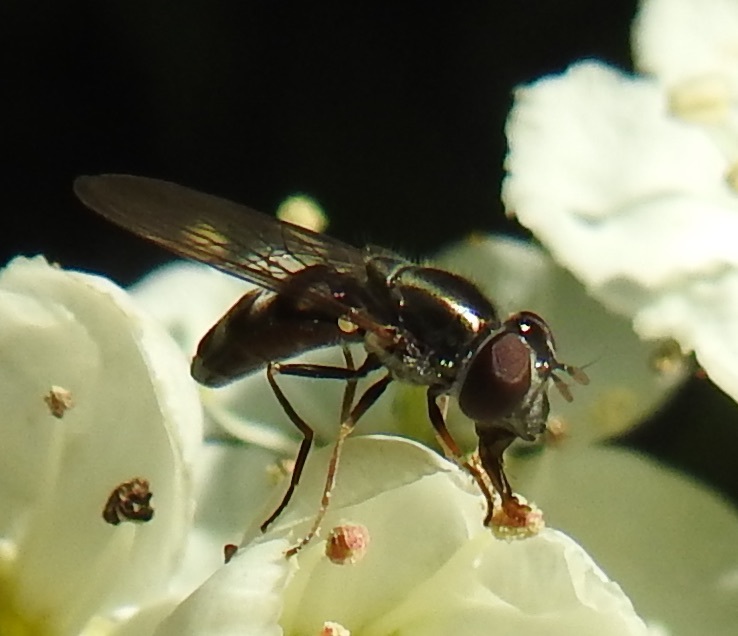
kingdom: Animalia
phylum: Arthropoda
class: Insecta
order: Diptera
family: Syrphidae
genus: Platycheirus
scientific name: Platycheirus trichopus
